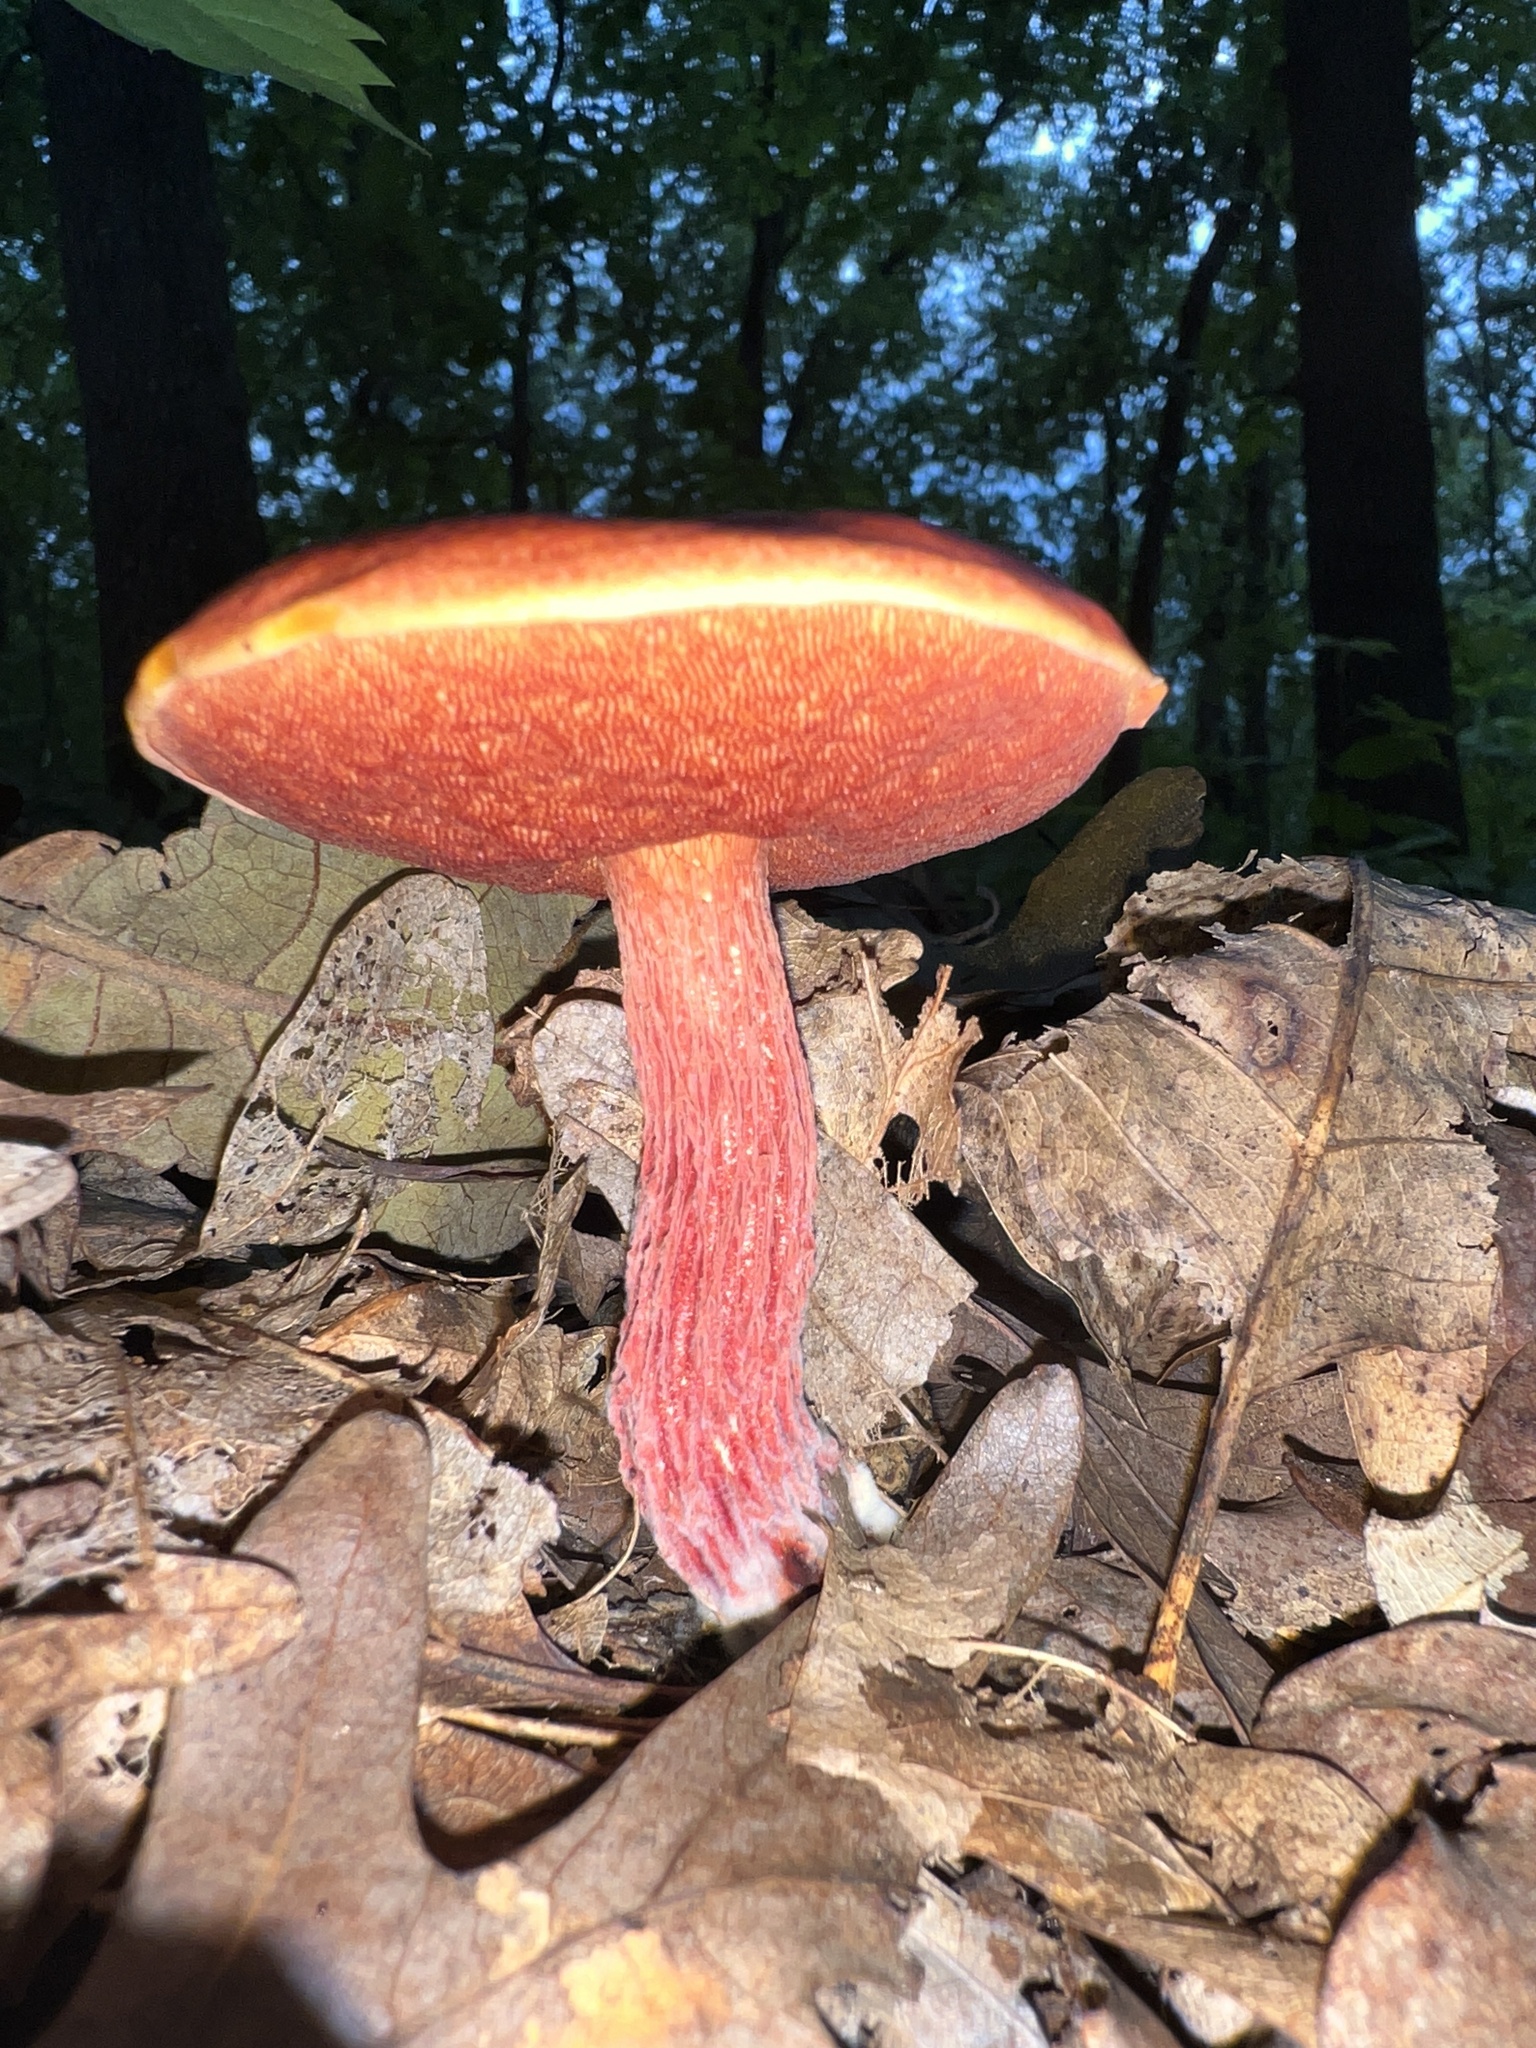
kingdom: Fungi
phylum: Basidiomycota
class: Agaricomycetes
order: Boletales
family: Boletaceae
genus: Butyriboletus
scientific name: Butyriboletus frostii
